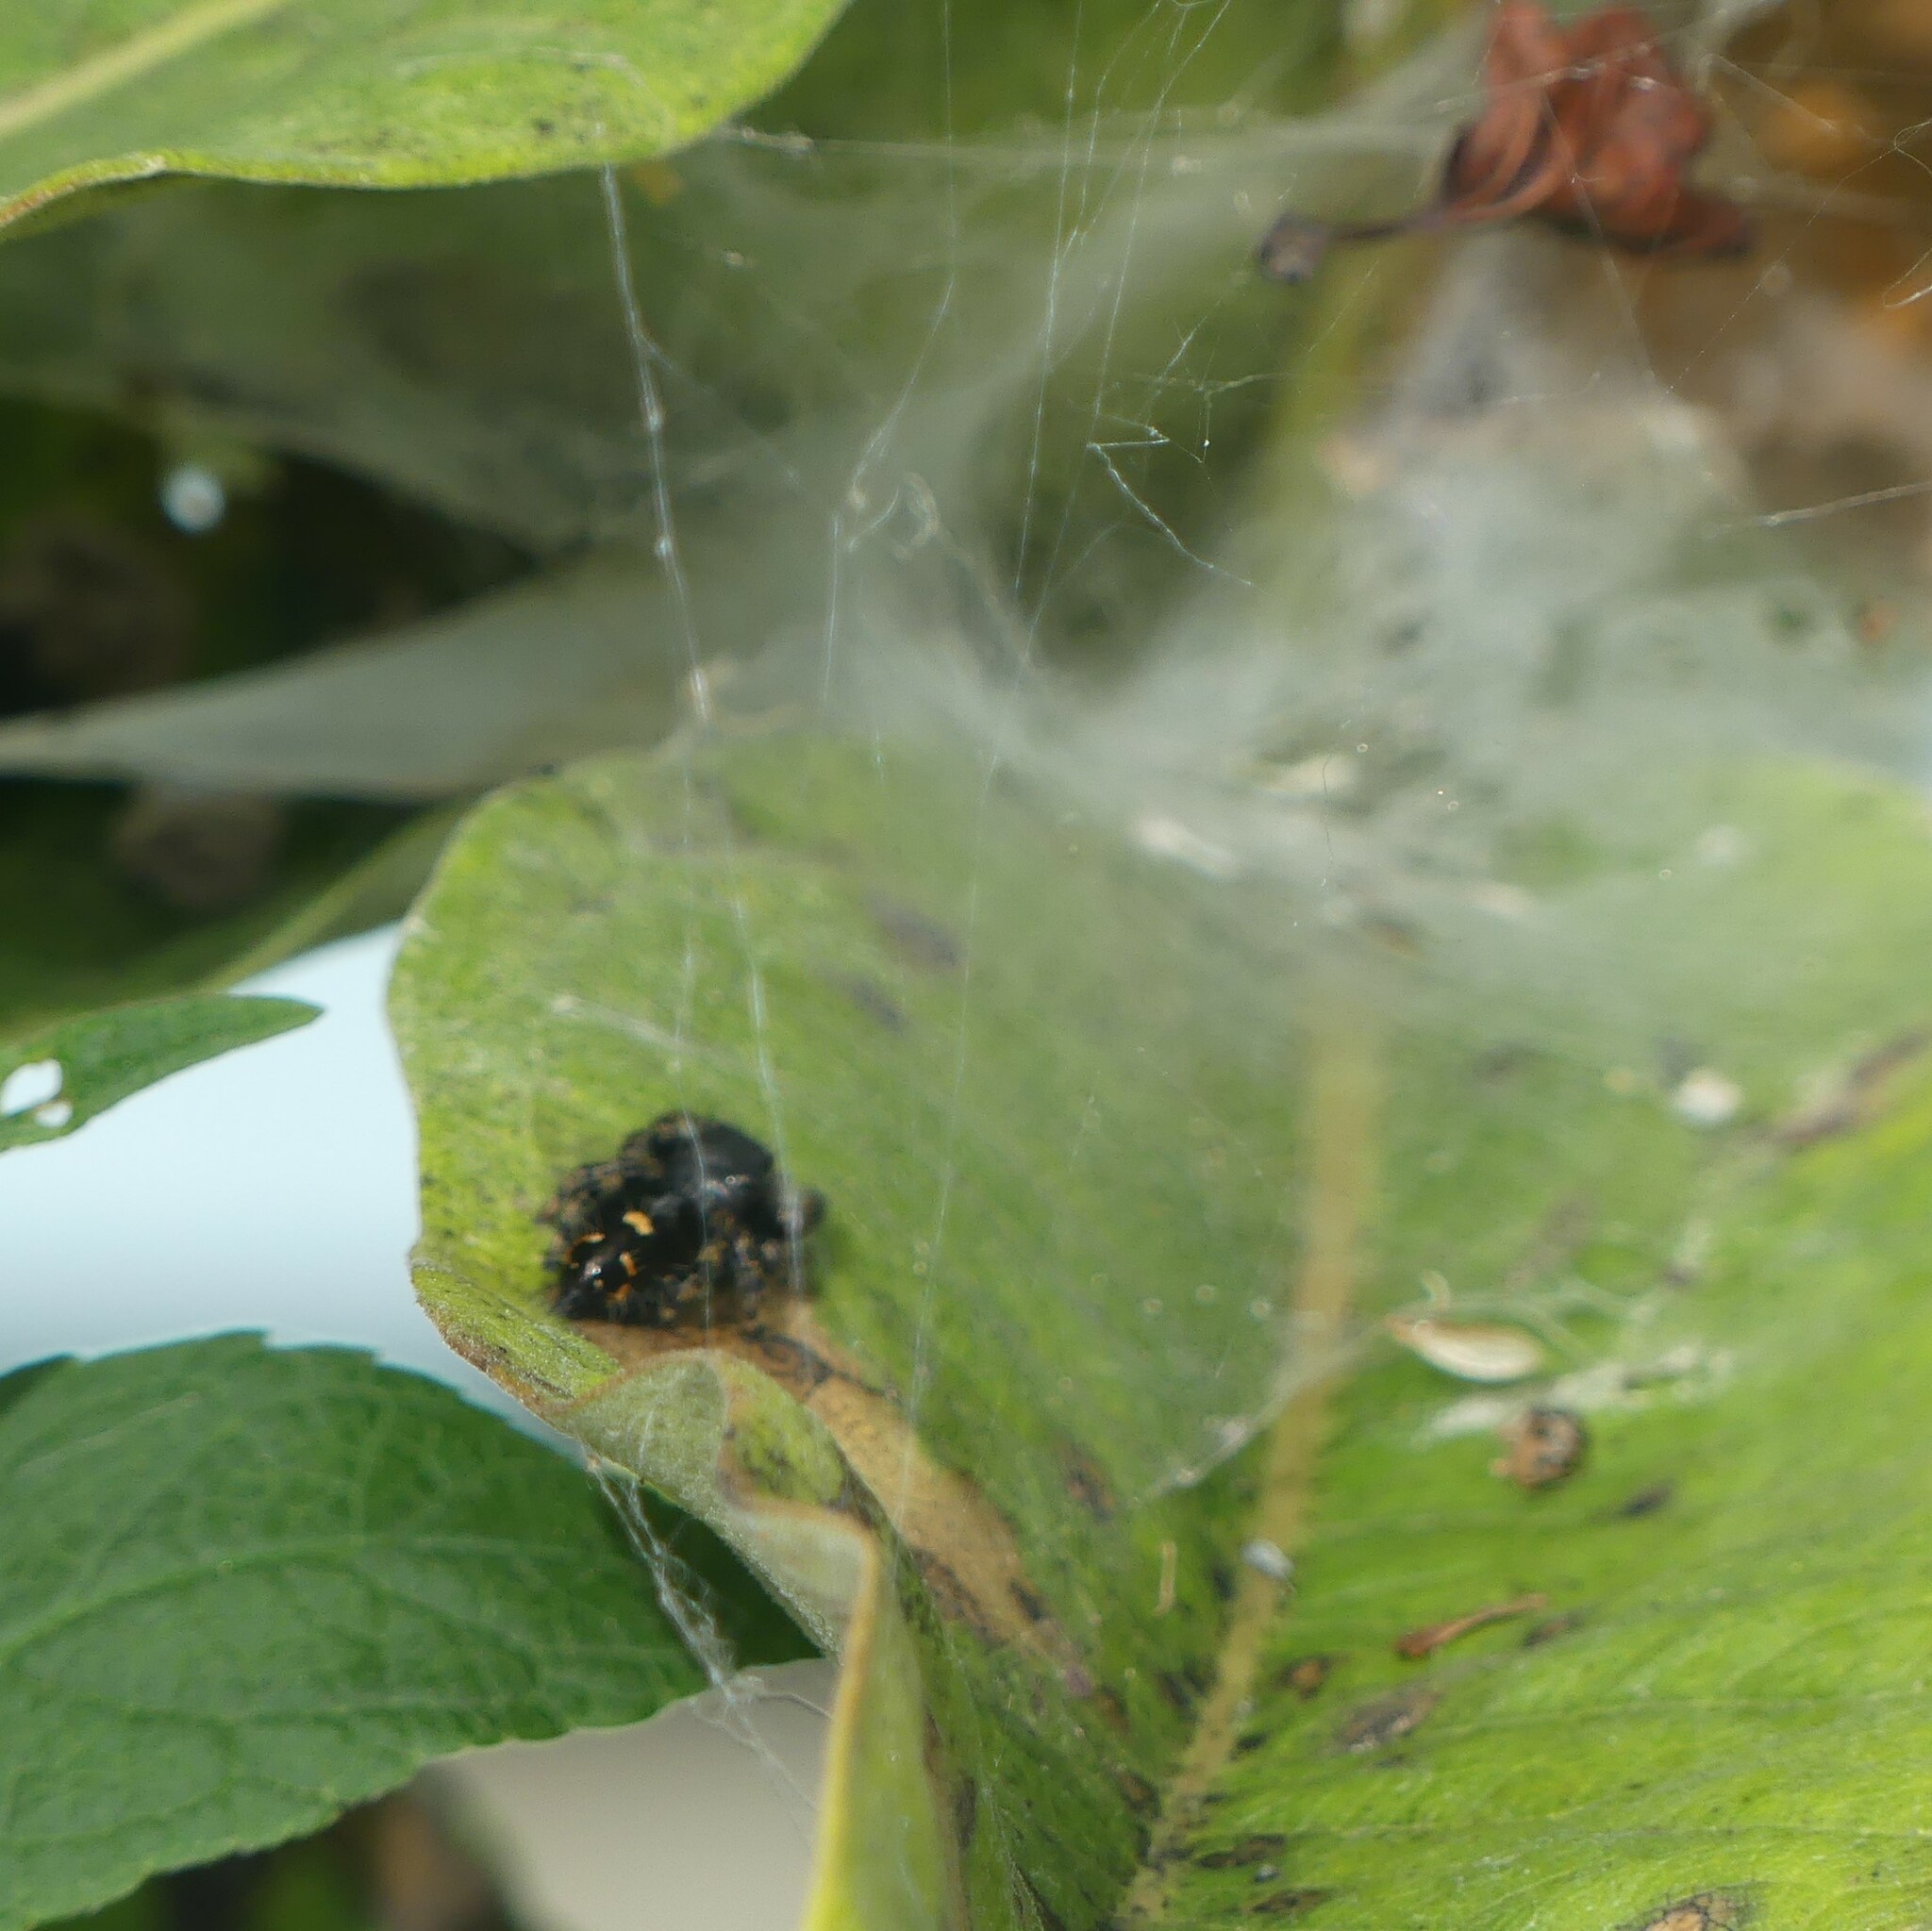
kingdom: Animalia
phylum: Arthropoda
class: Arachnida
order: Araneae
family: Salticidae
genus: Phidippus
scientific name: Phidippus audax
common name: Bold jumper
